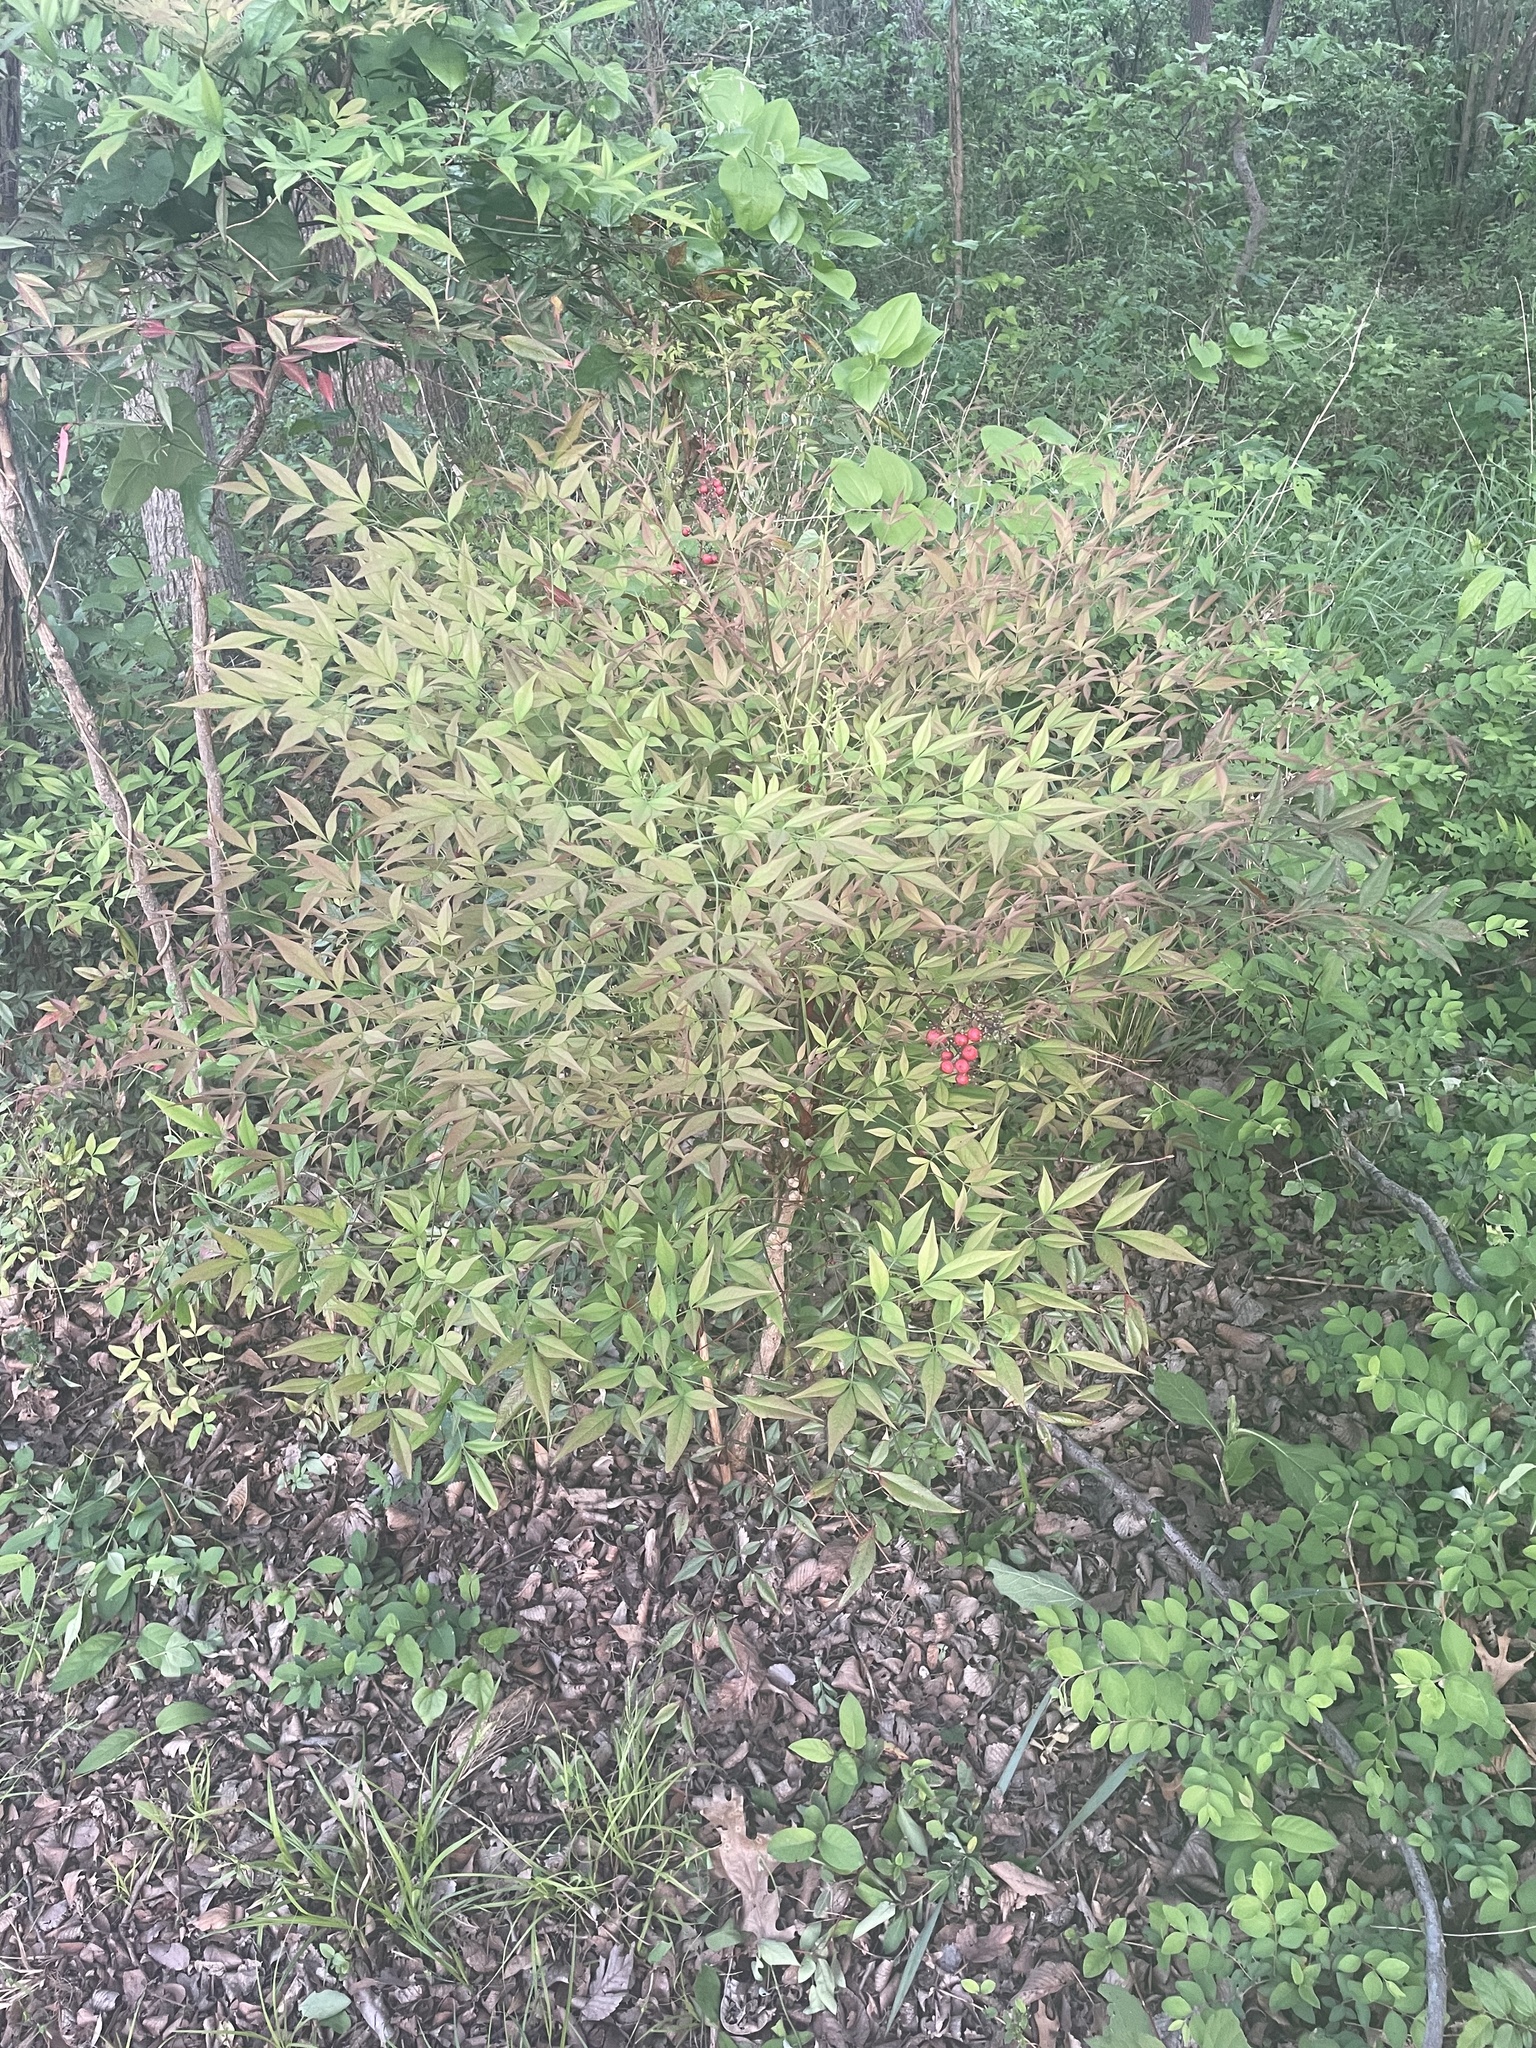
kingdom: Plantae
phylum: Tracheophyta
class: Magnoliopsida
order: Ranunculales
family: Berberidaceae
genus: Nandina
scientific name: Nandina domestica
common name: Sacred bamboo
